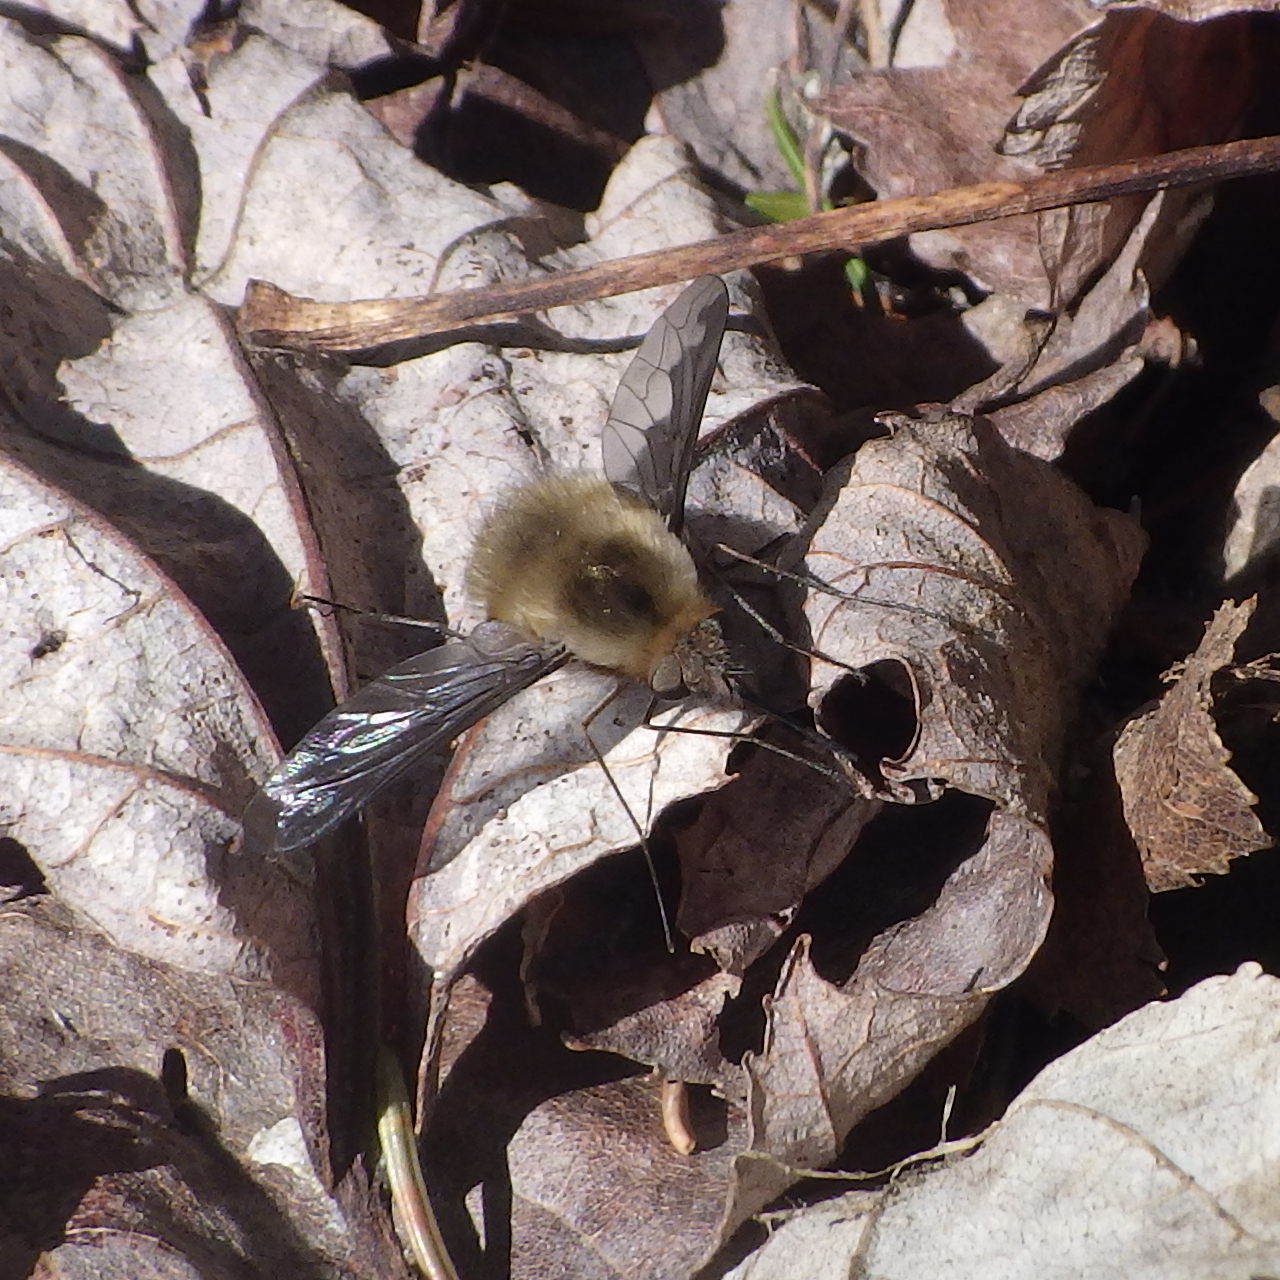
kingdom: Animalia
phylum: Arthropoda
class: Insecta
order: Diptera
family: Bombyliidae
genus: Bombylius
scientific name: Bombylius major
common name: Bee fly
